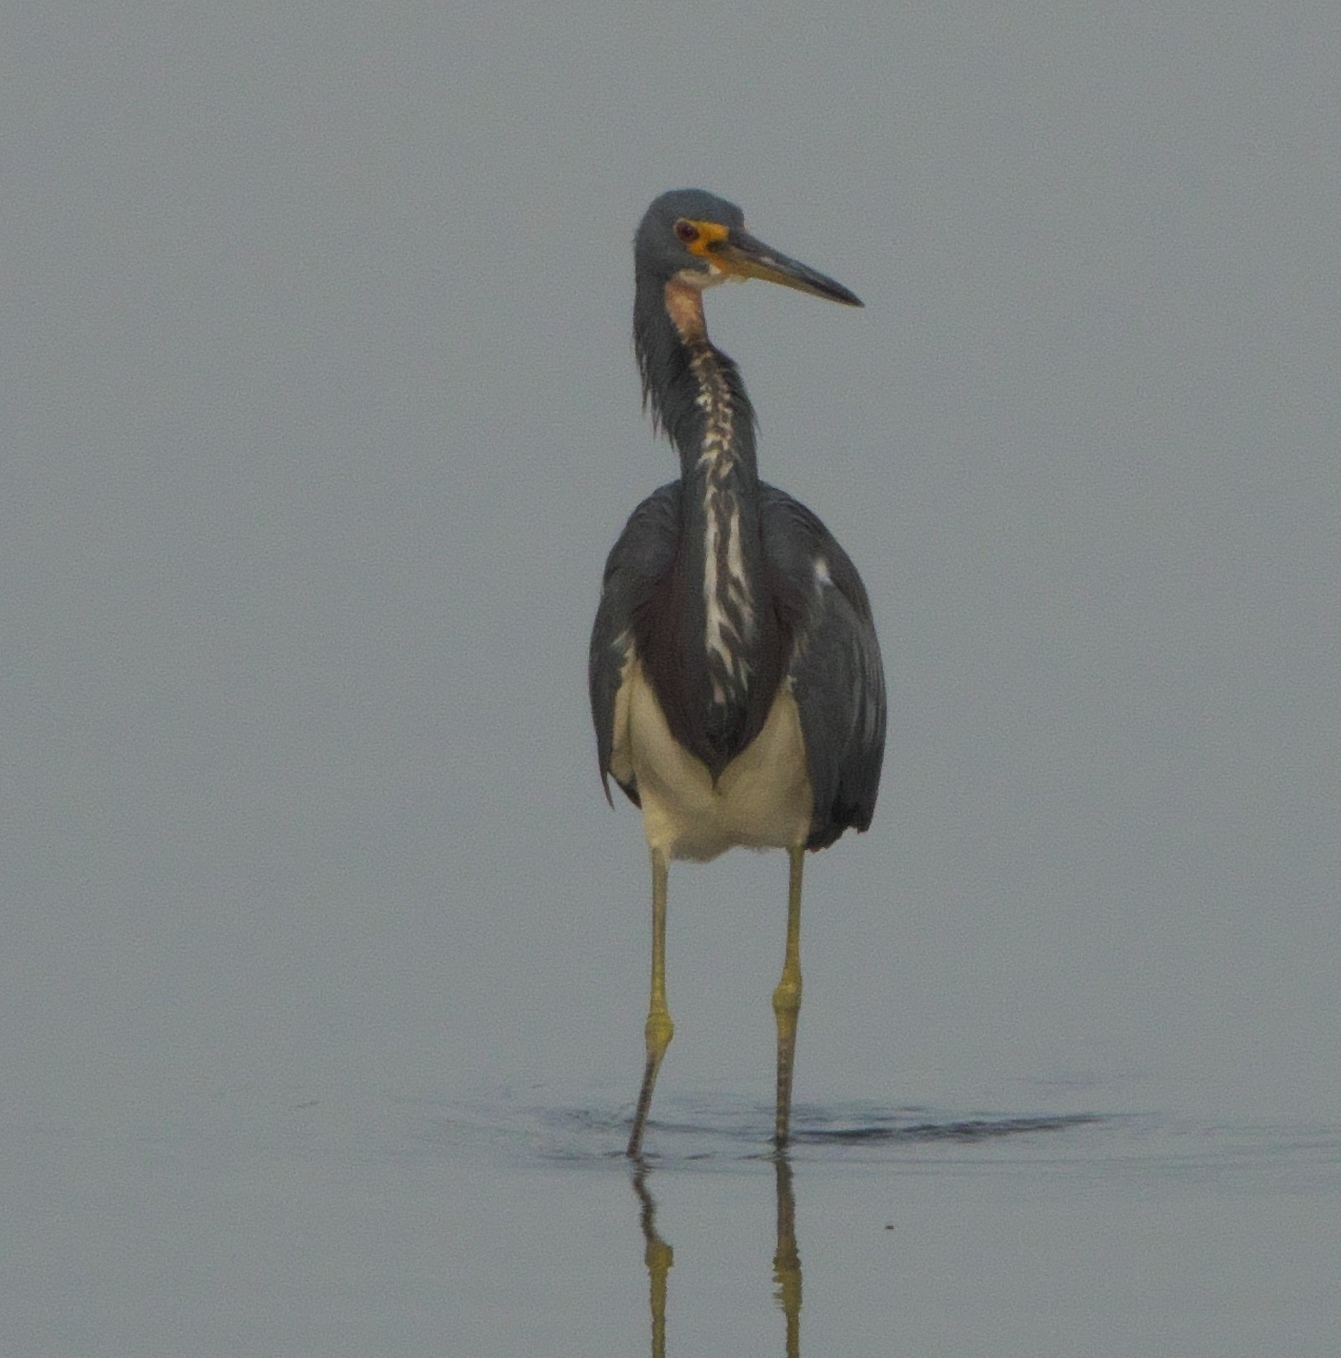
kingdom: Animalia
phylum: Chordata
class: Aves
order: Pelecaniformes
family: Ardeidae
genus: Egretta
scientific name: Egretta tricolor
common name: Tricolored heron
